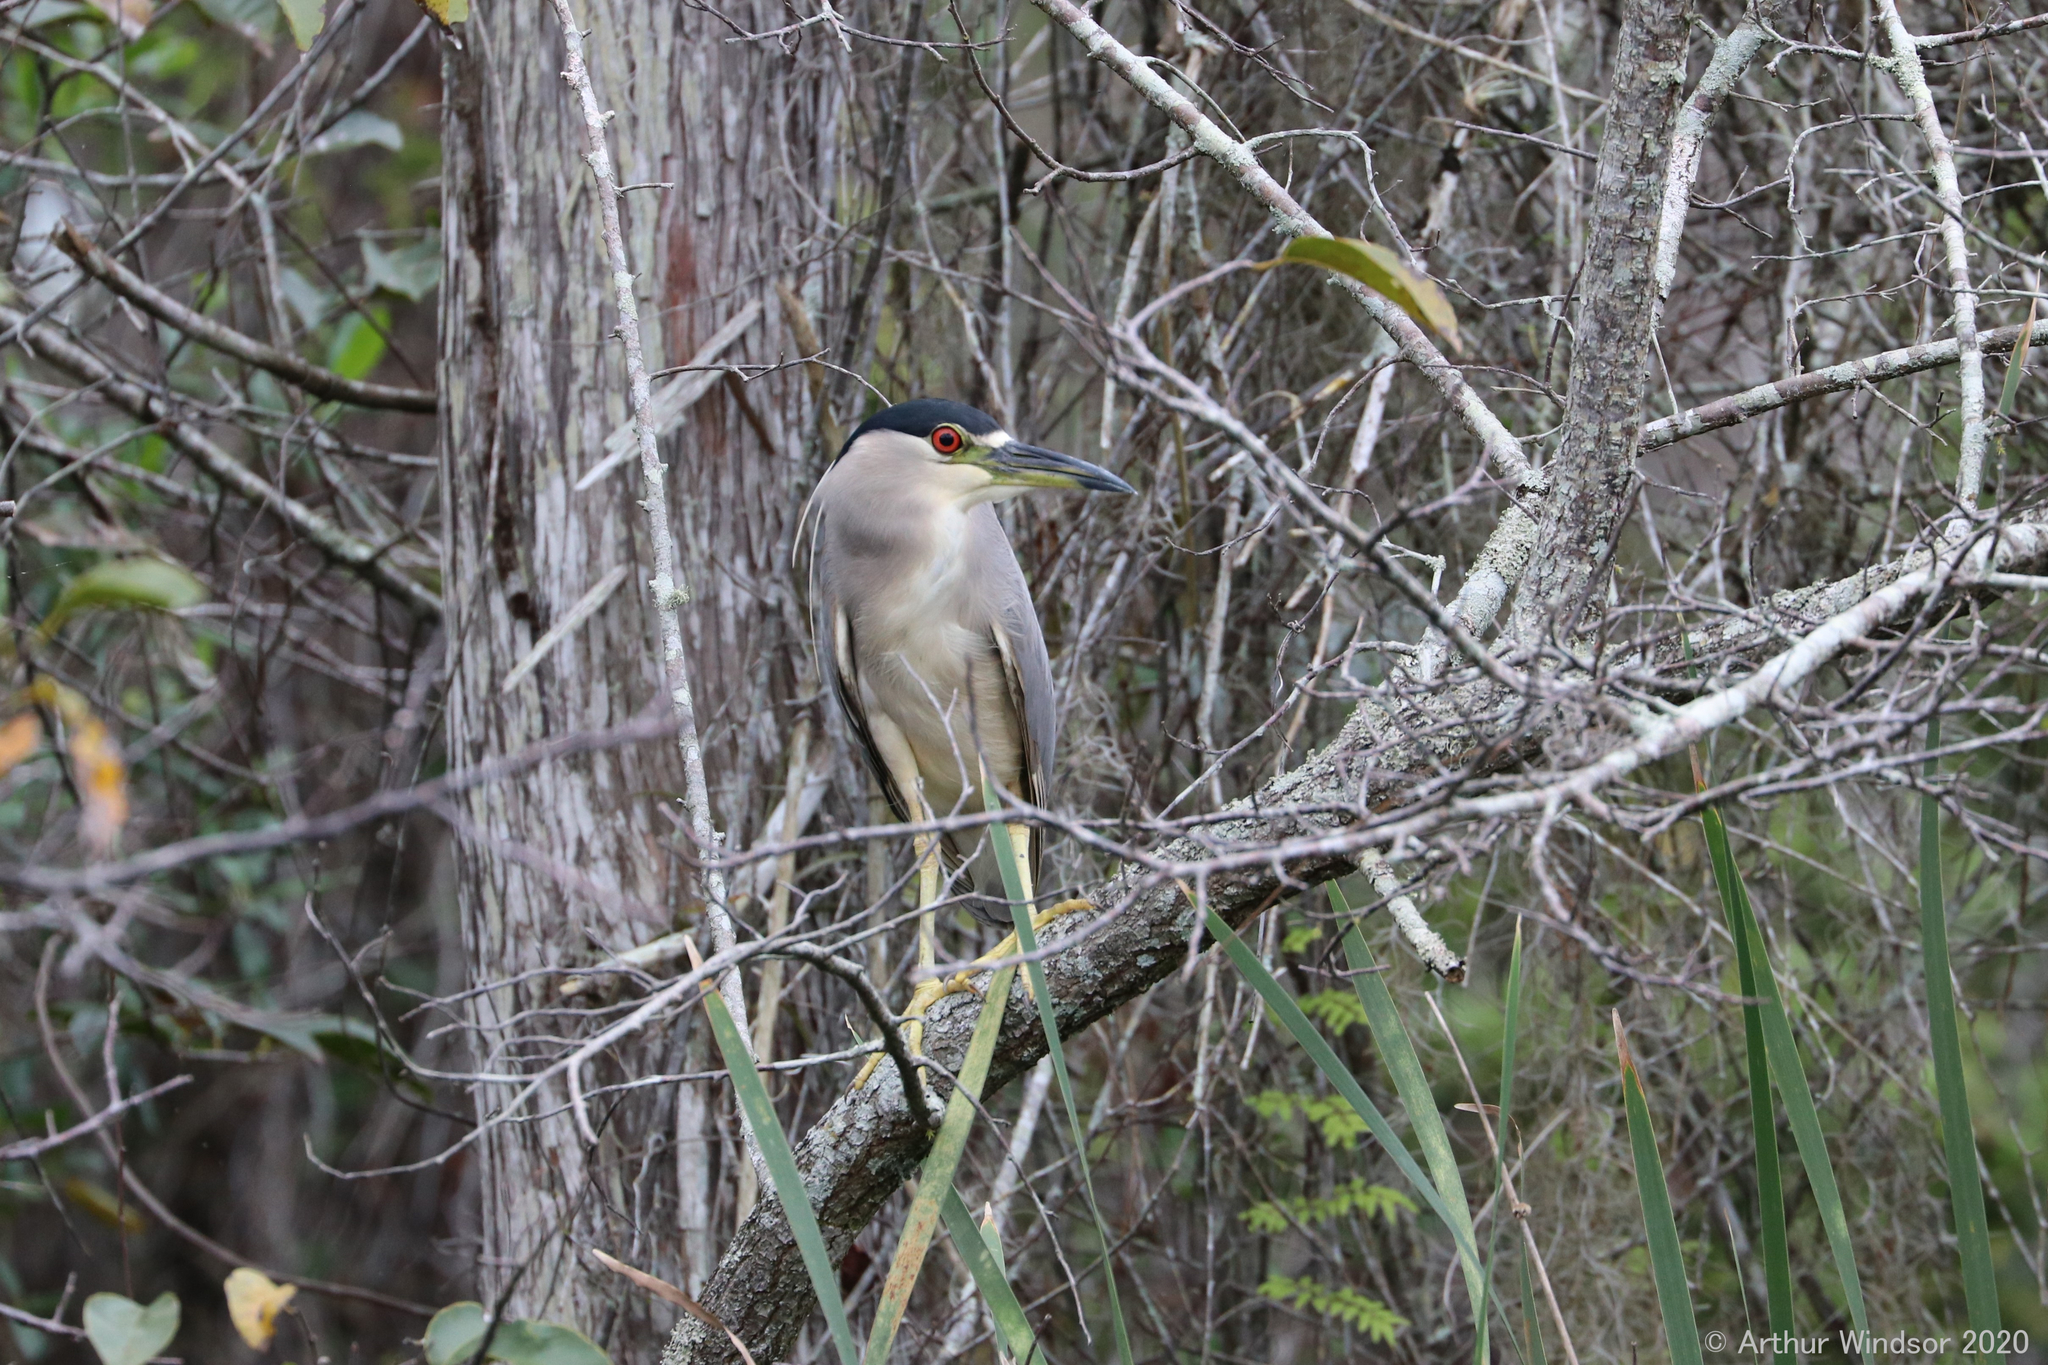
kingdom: Animalia
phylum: Chordata
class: Aves
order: Pelecaniformes
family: Ardeidae
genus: Nycticorax
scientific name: Nycticorax nycticorax
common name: Black-crowned night heron
